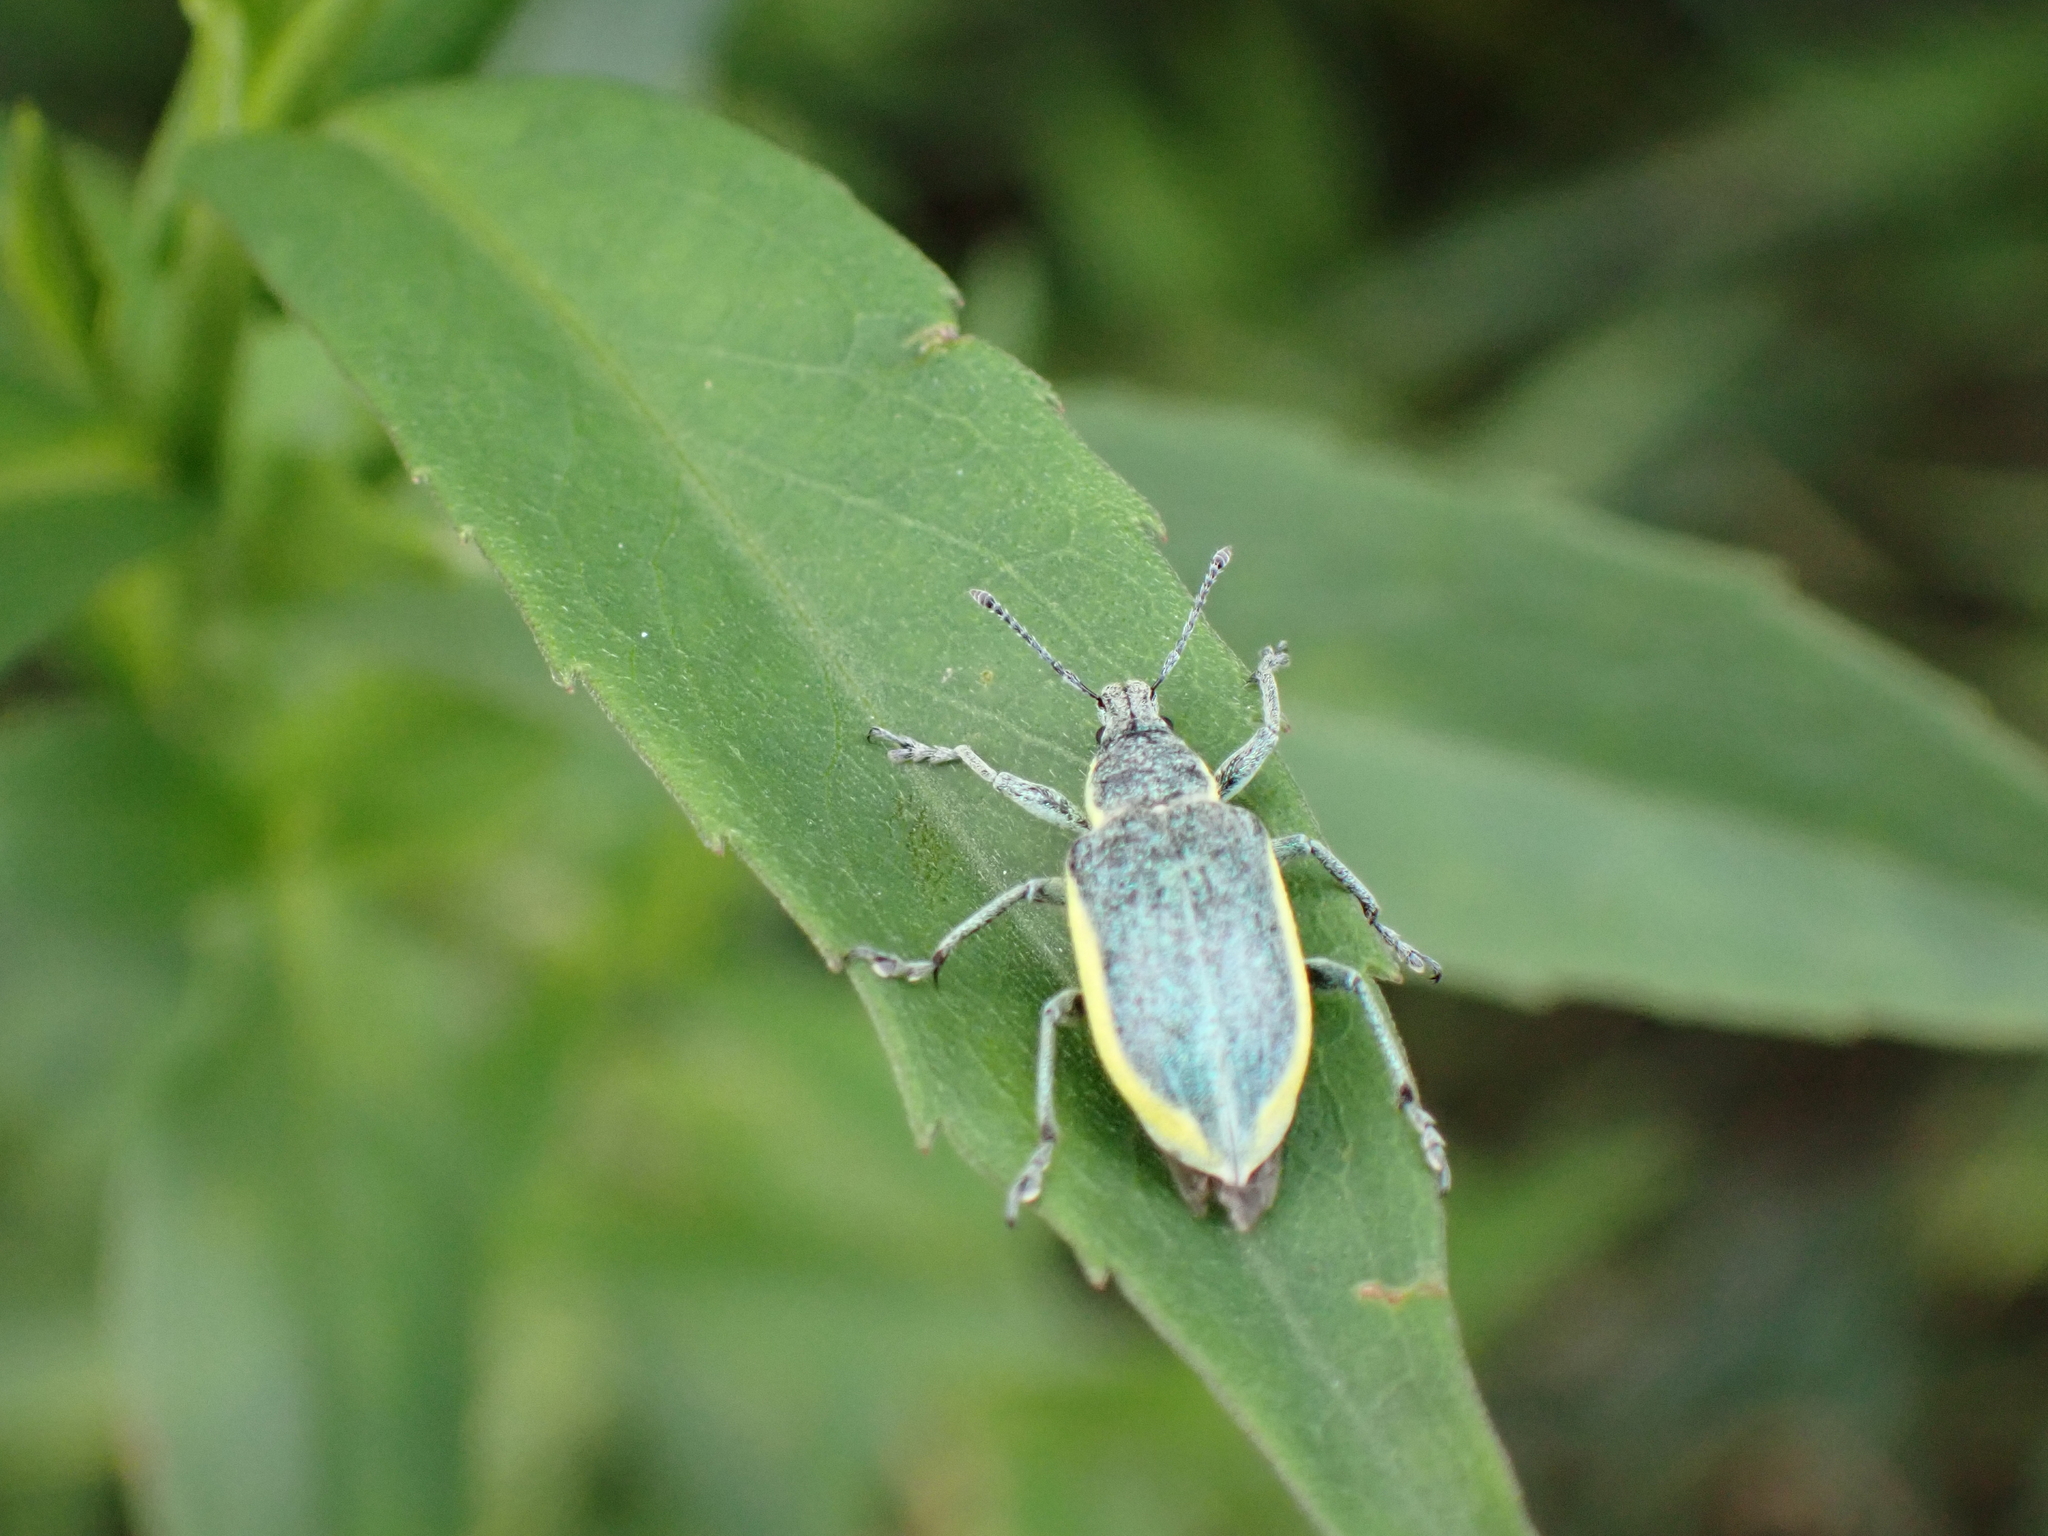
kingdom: Animalia
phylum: Arthropoda
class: Insecta
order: Coleoptera
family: Curculionidae
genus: Chlorophanus
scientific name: Chlorophanus viridis
